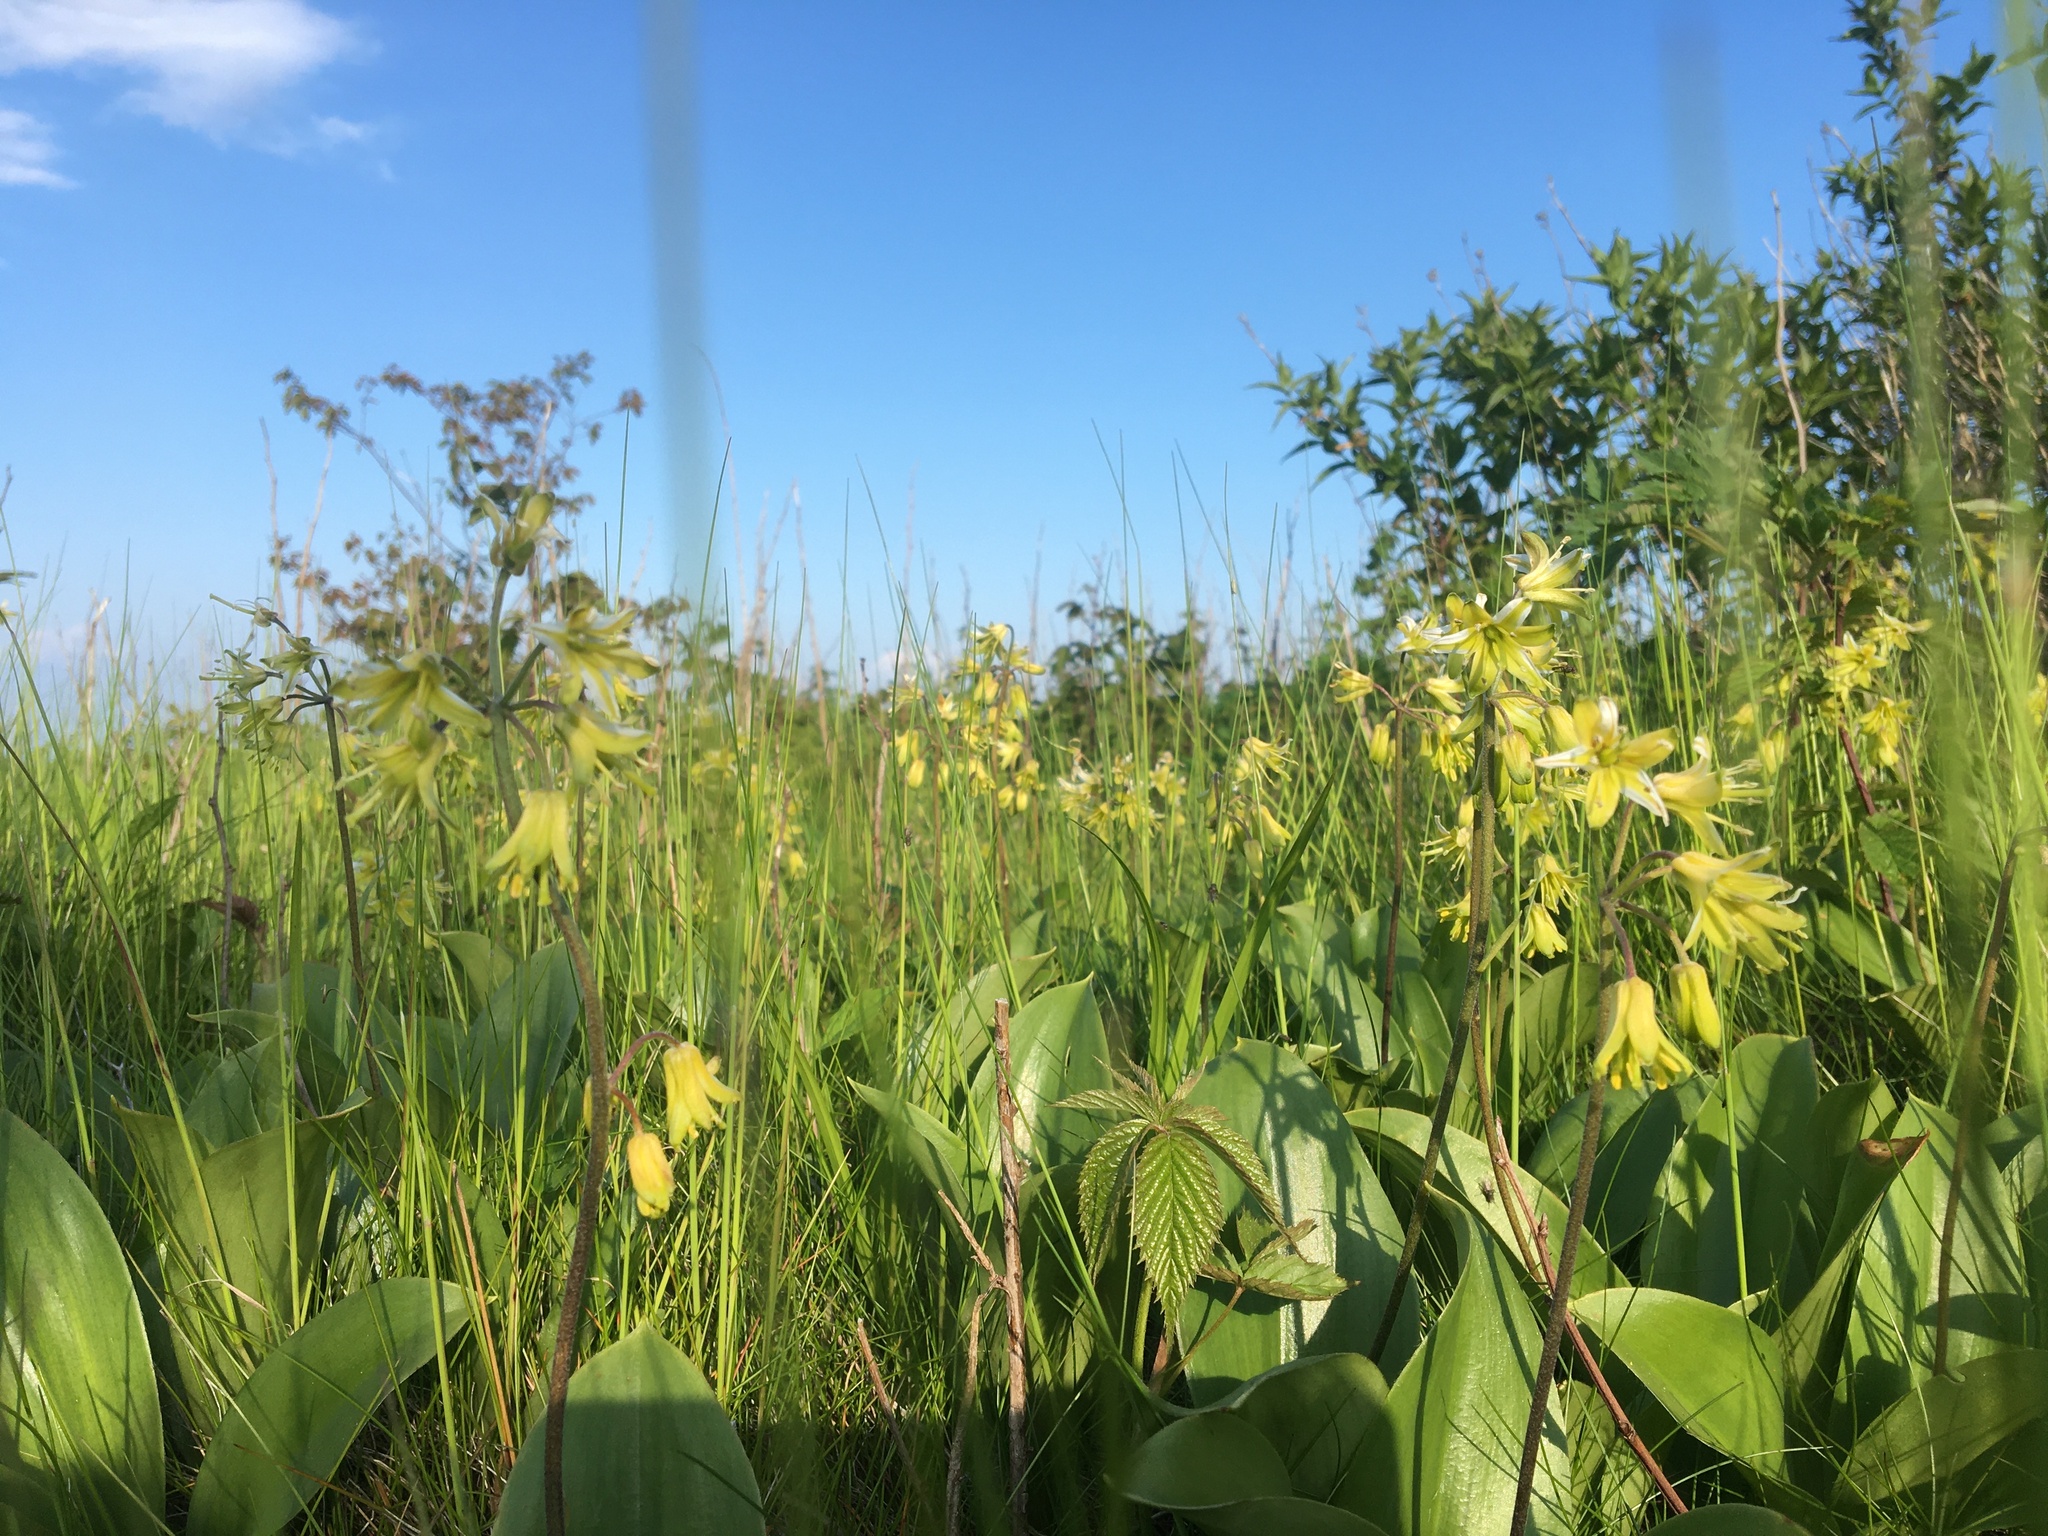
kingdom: Plantae
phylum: Tracheophyta
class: Liliopsida
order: Liliales
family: Liliaceae
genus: Clintonia
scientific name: Clintonia borealis
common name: Yellow clintonia
